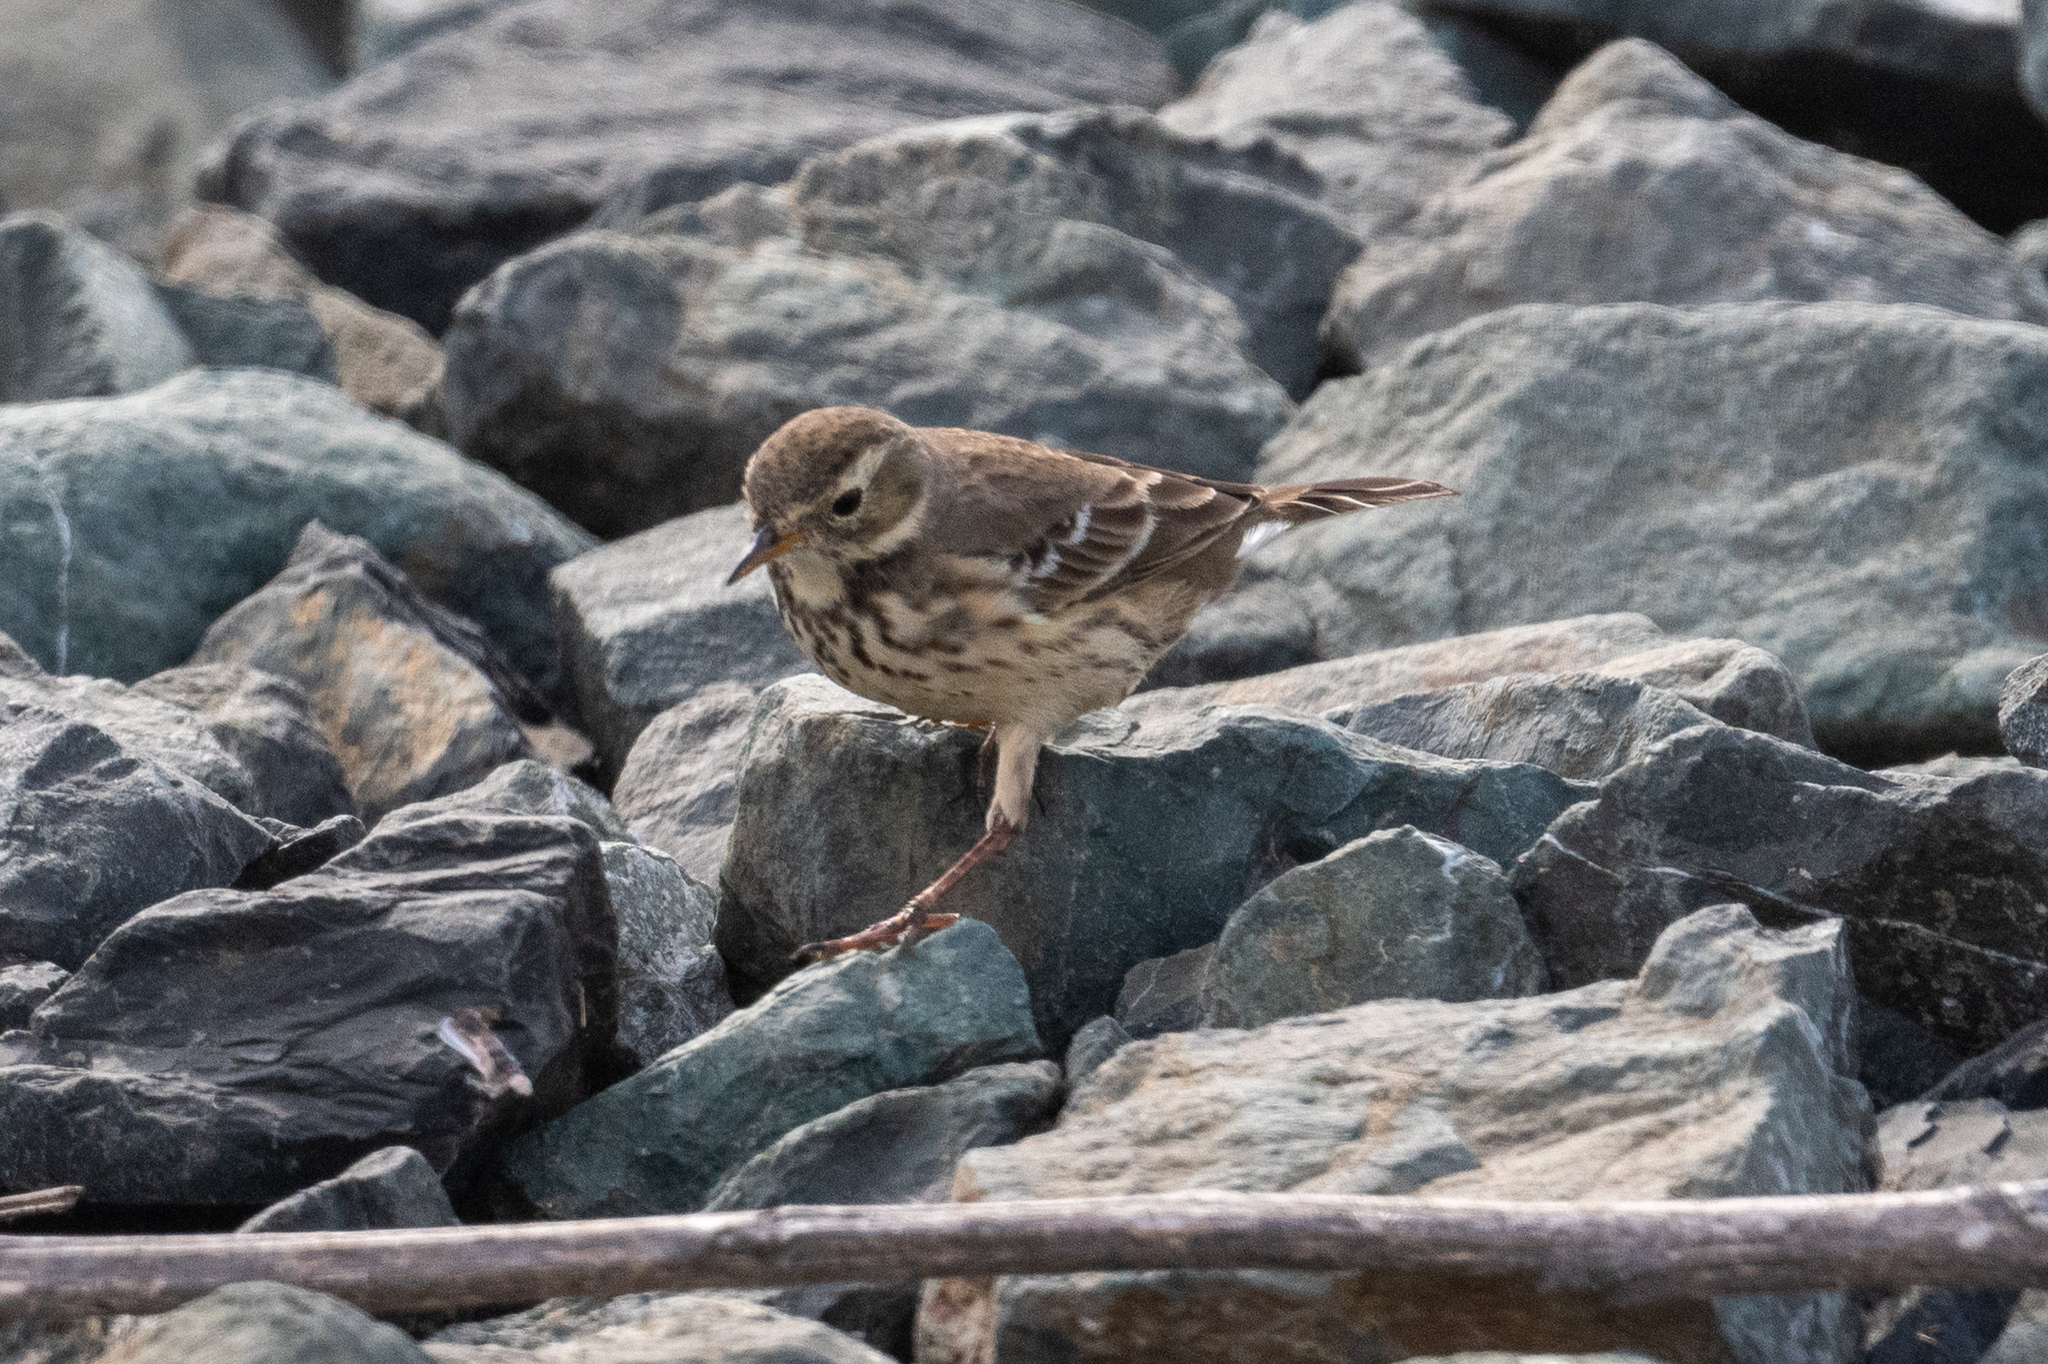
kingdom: Animalia
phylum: Chordata
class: Aves
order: Passeriformes
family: Motacillidae
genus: Anthus
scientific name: Anthus rubescens
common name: Buff-bellied pipit
